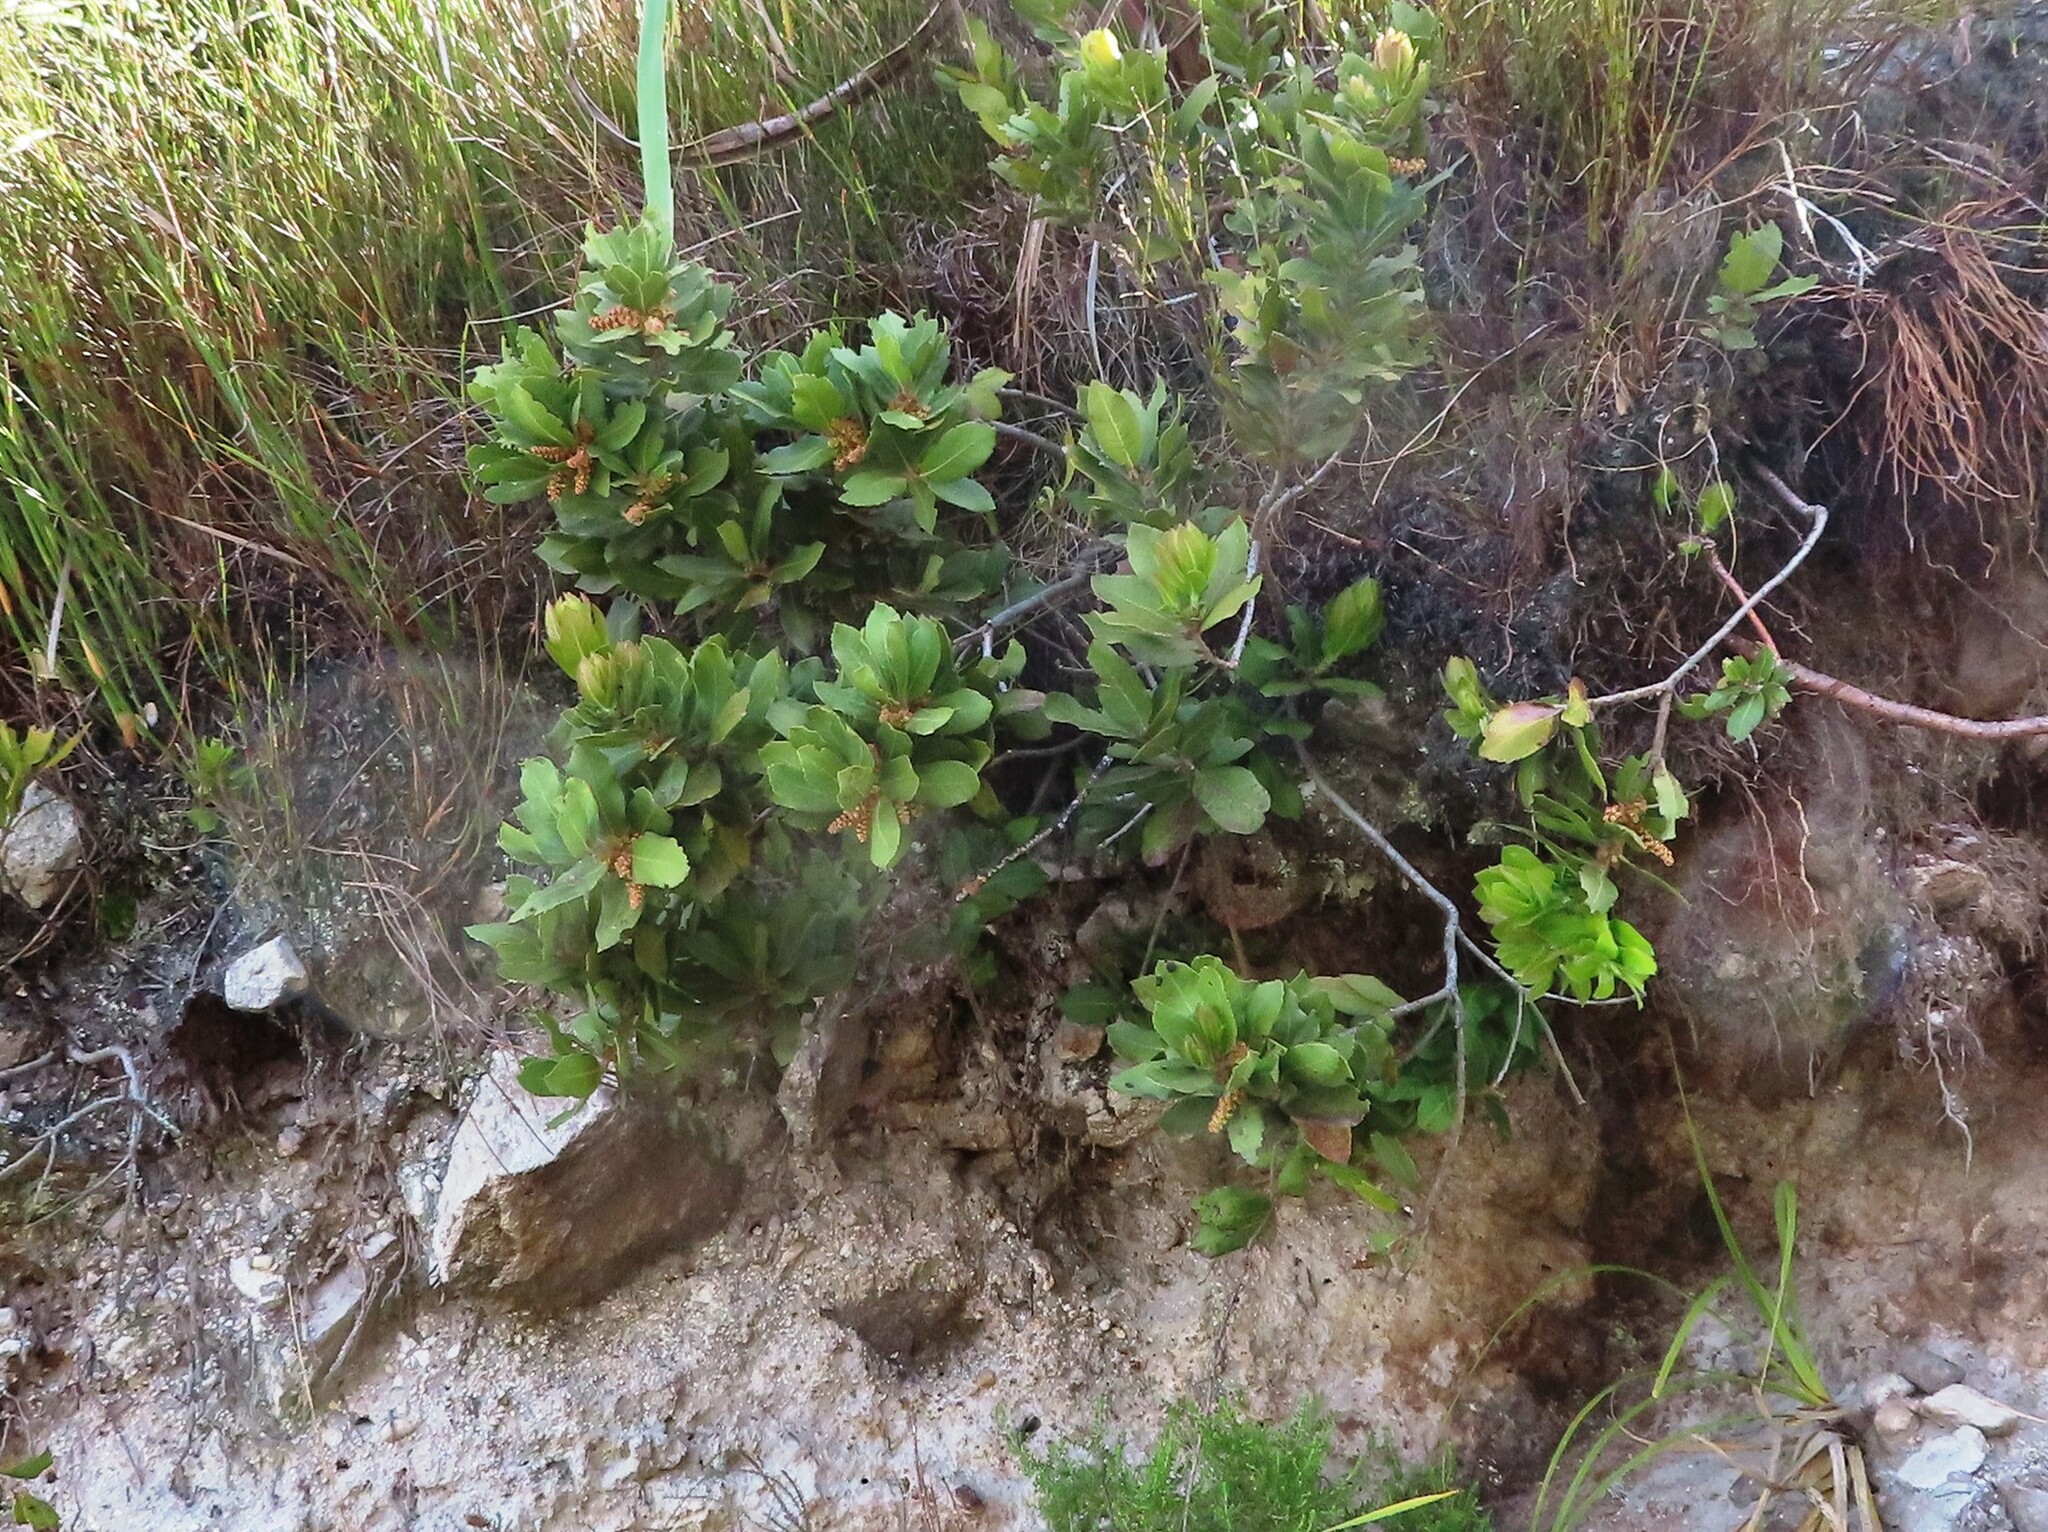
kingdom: Plantae
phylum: Tracheophyta
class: Magnoliopsida
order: Sapindales
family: Anacardiaceae
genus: Laurophyllus
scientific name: Laurophyllus capensis
